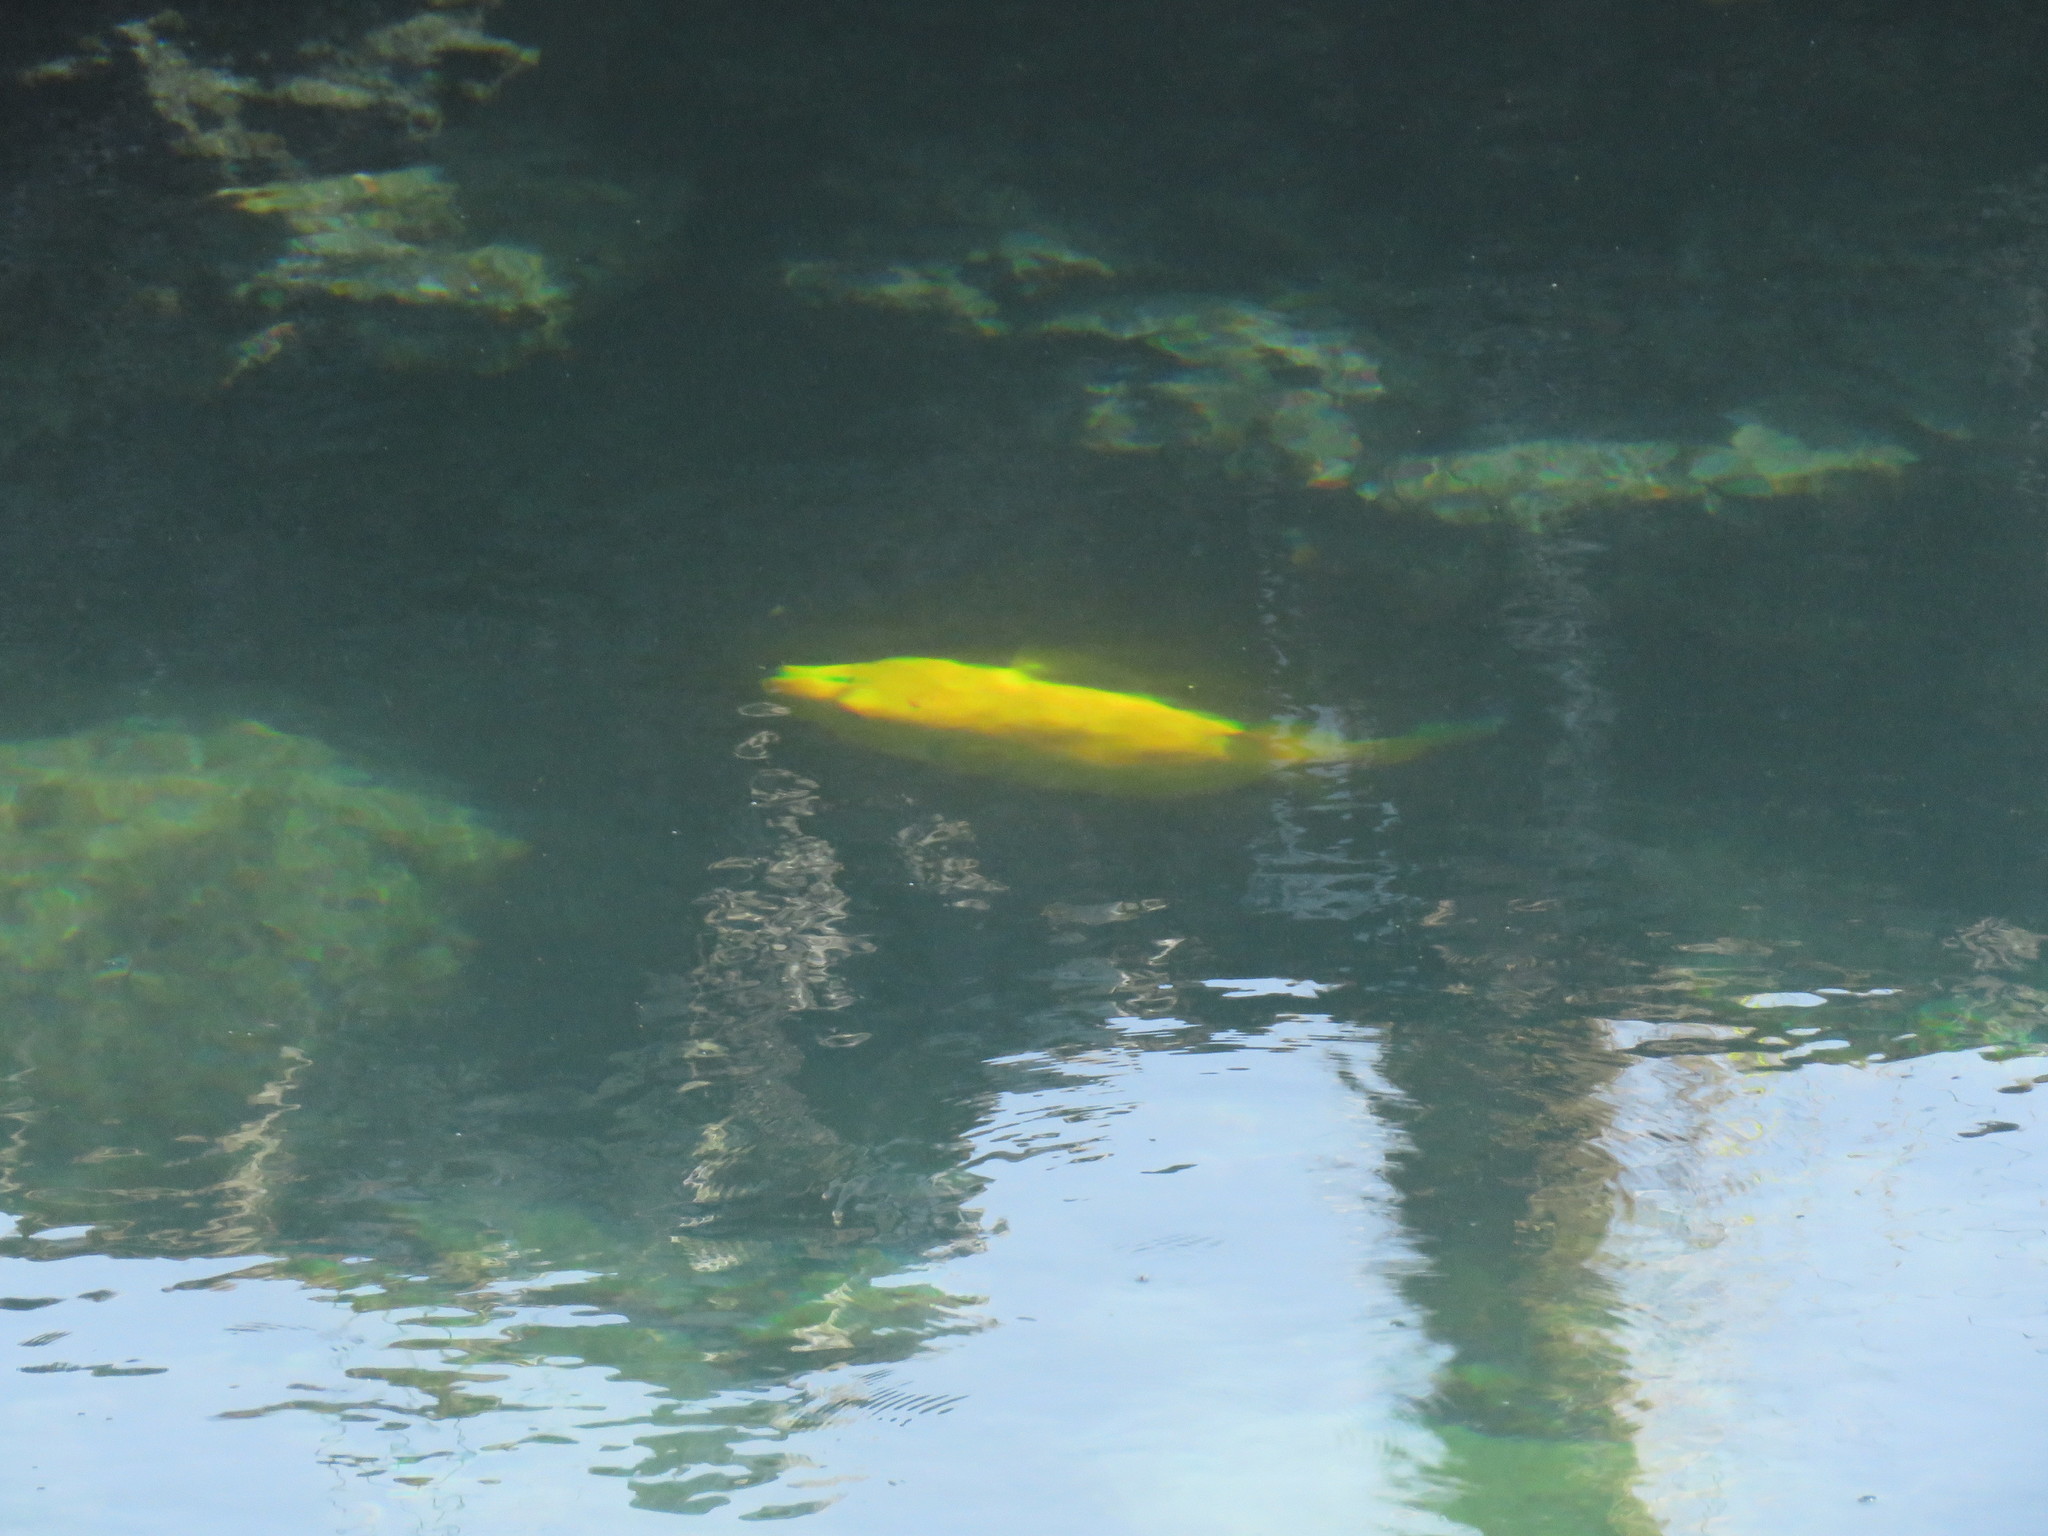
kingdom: Animalia
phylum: Chordata
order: Tetraodontiformes
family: Tetraodontidae
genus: Arothron
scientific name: Arothron meleagris
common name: Guinea-fowl pufferfish
